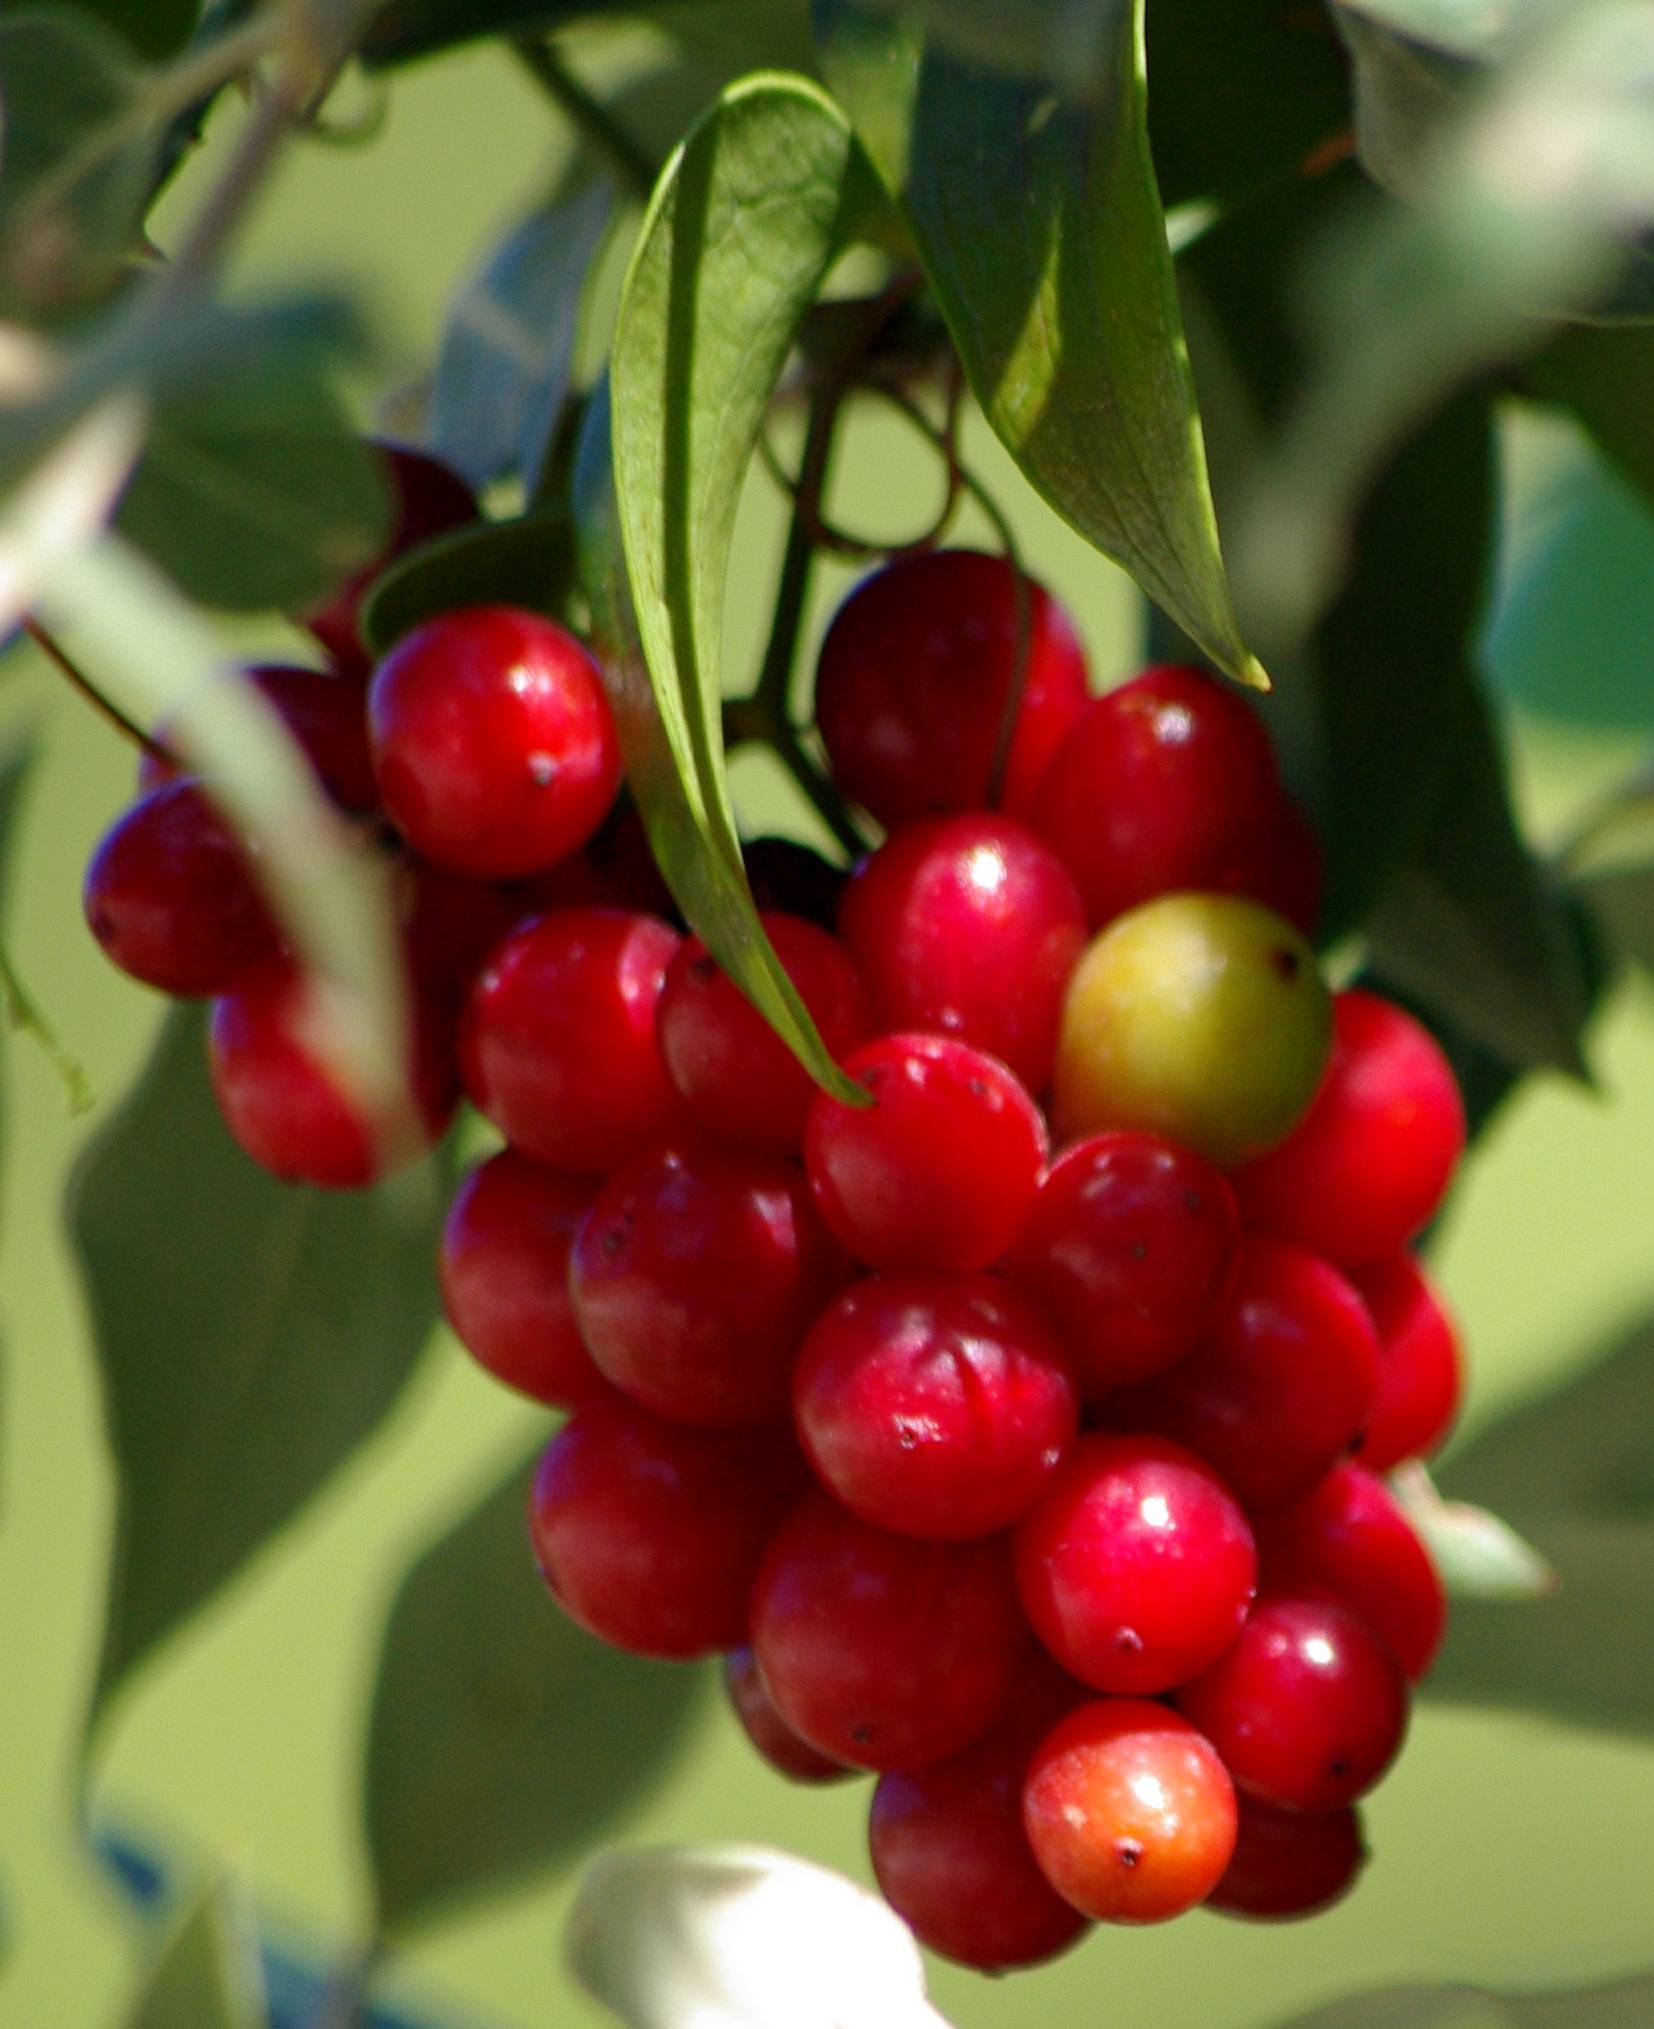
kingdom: Plantae
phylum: Tracheophyta
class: Liliopsida
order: Liliales
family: Smilacaceae
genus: Smilax
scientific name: Smilax aspera
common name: Common smilax
